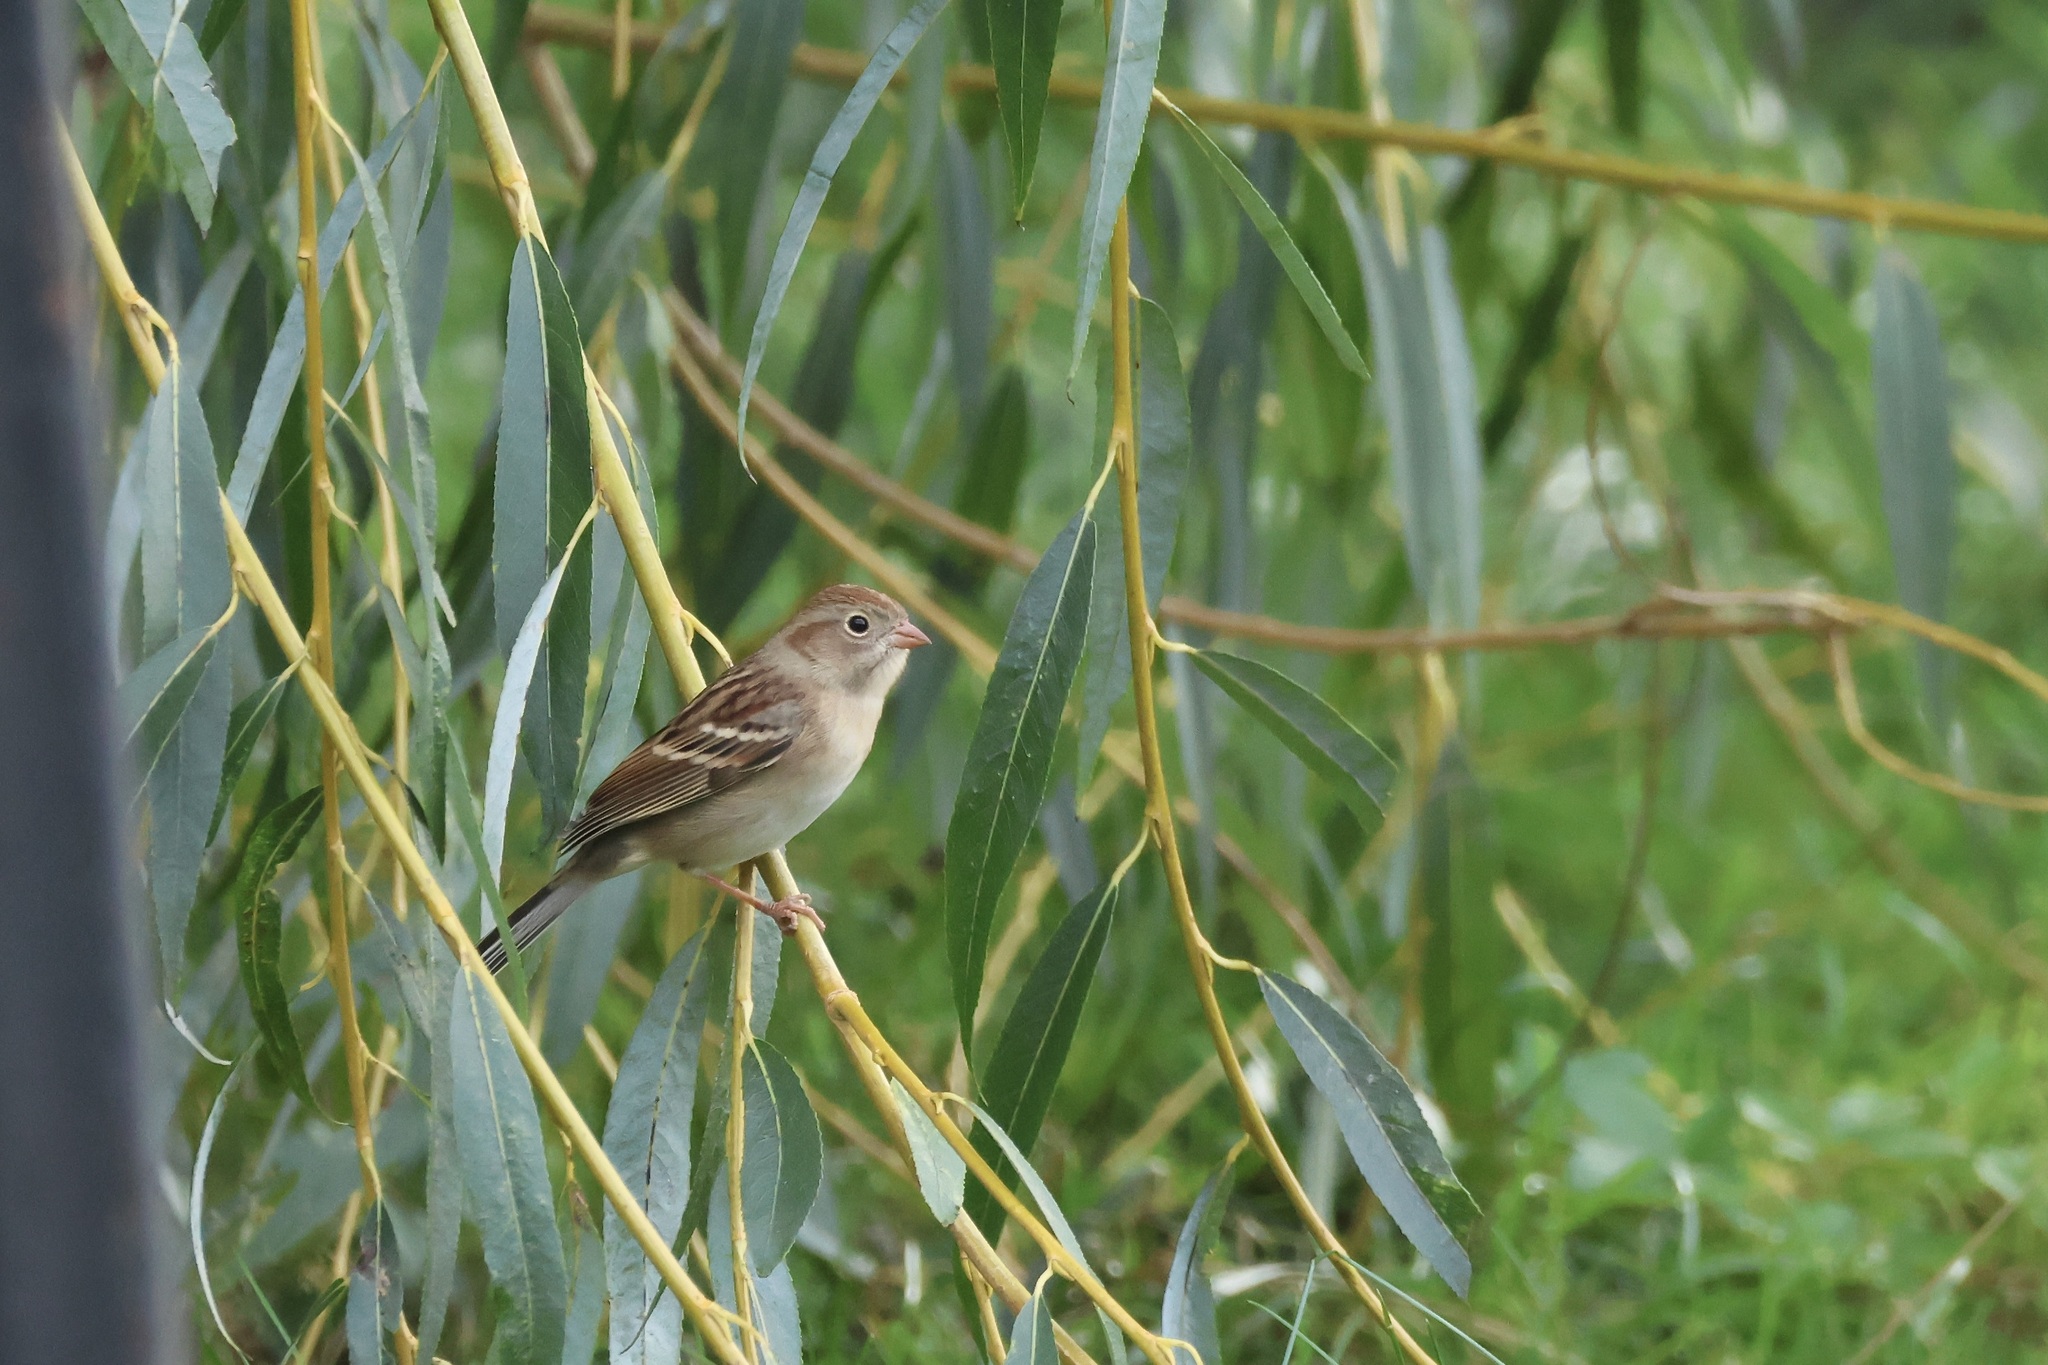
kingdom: Animalia
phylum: Chordata
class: Aves
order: Passeriformes
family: Passerellidae
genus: Spizella
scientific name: Spizella pusilla
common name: Field sparrow
